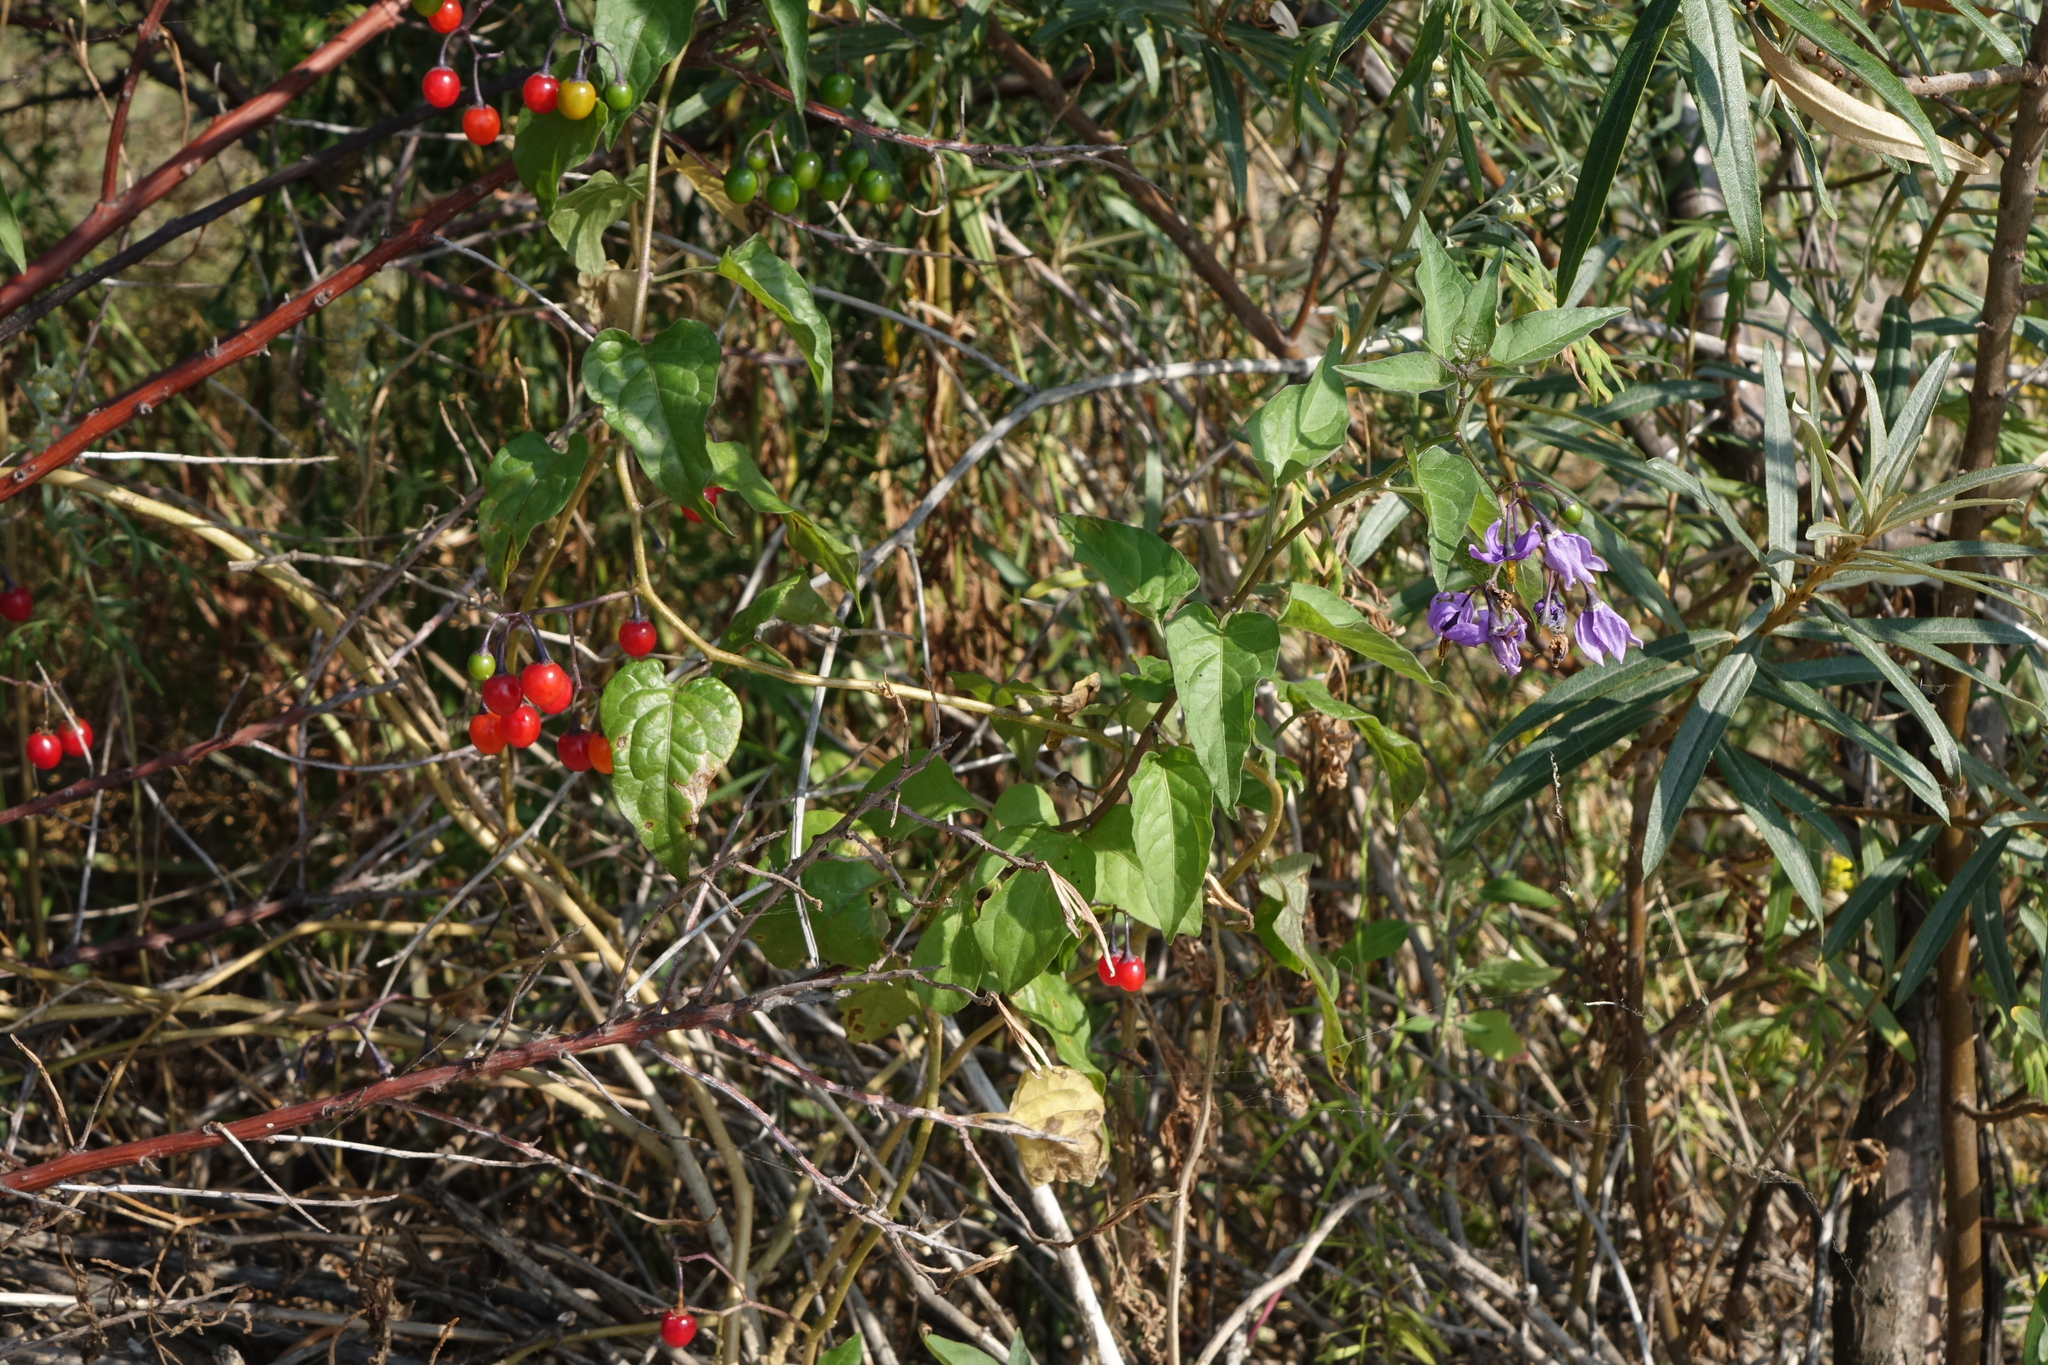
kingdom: Plantae
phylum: Tracheophyta
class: Magnoliopsida
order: Solanales
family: Solanaceae
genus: Solanum
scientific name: Solanum dulcamara
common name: Climbing nightshade
